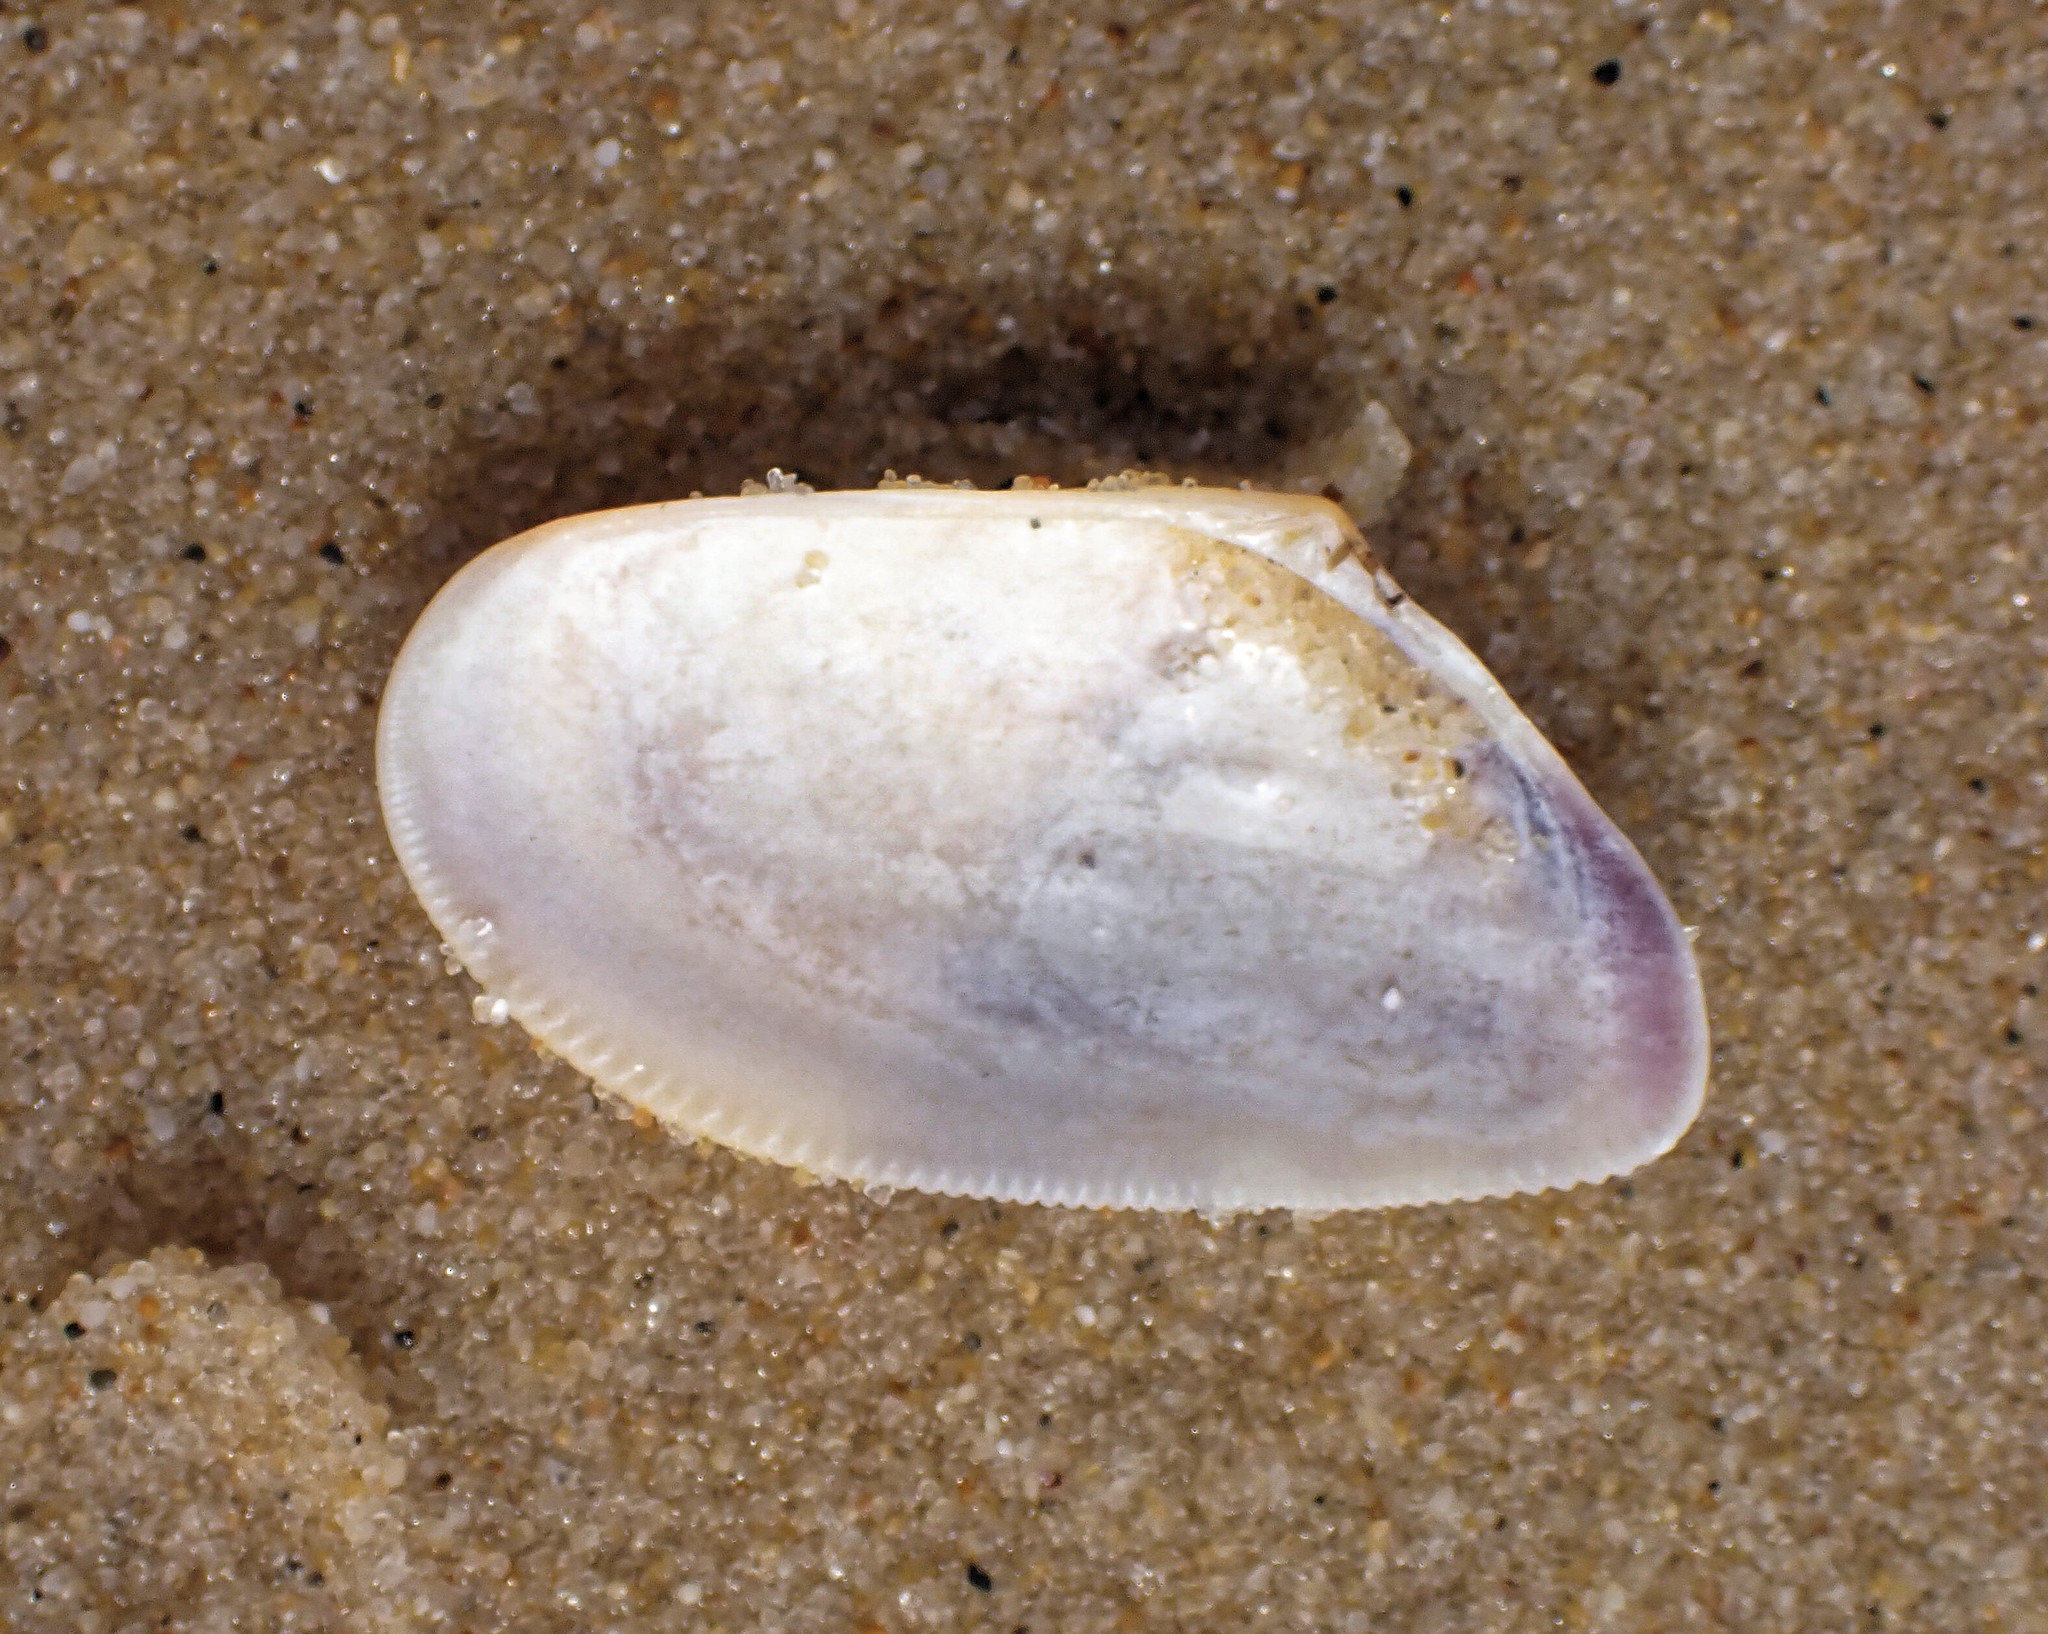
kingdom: Animalia
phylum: Mollusca
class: Bivalvia
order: Cardiida
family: Donacidae
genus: Donax
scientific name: Donax semistriatus
